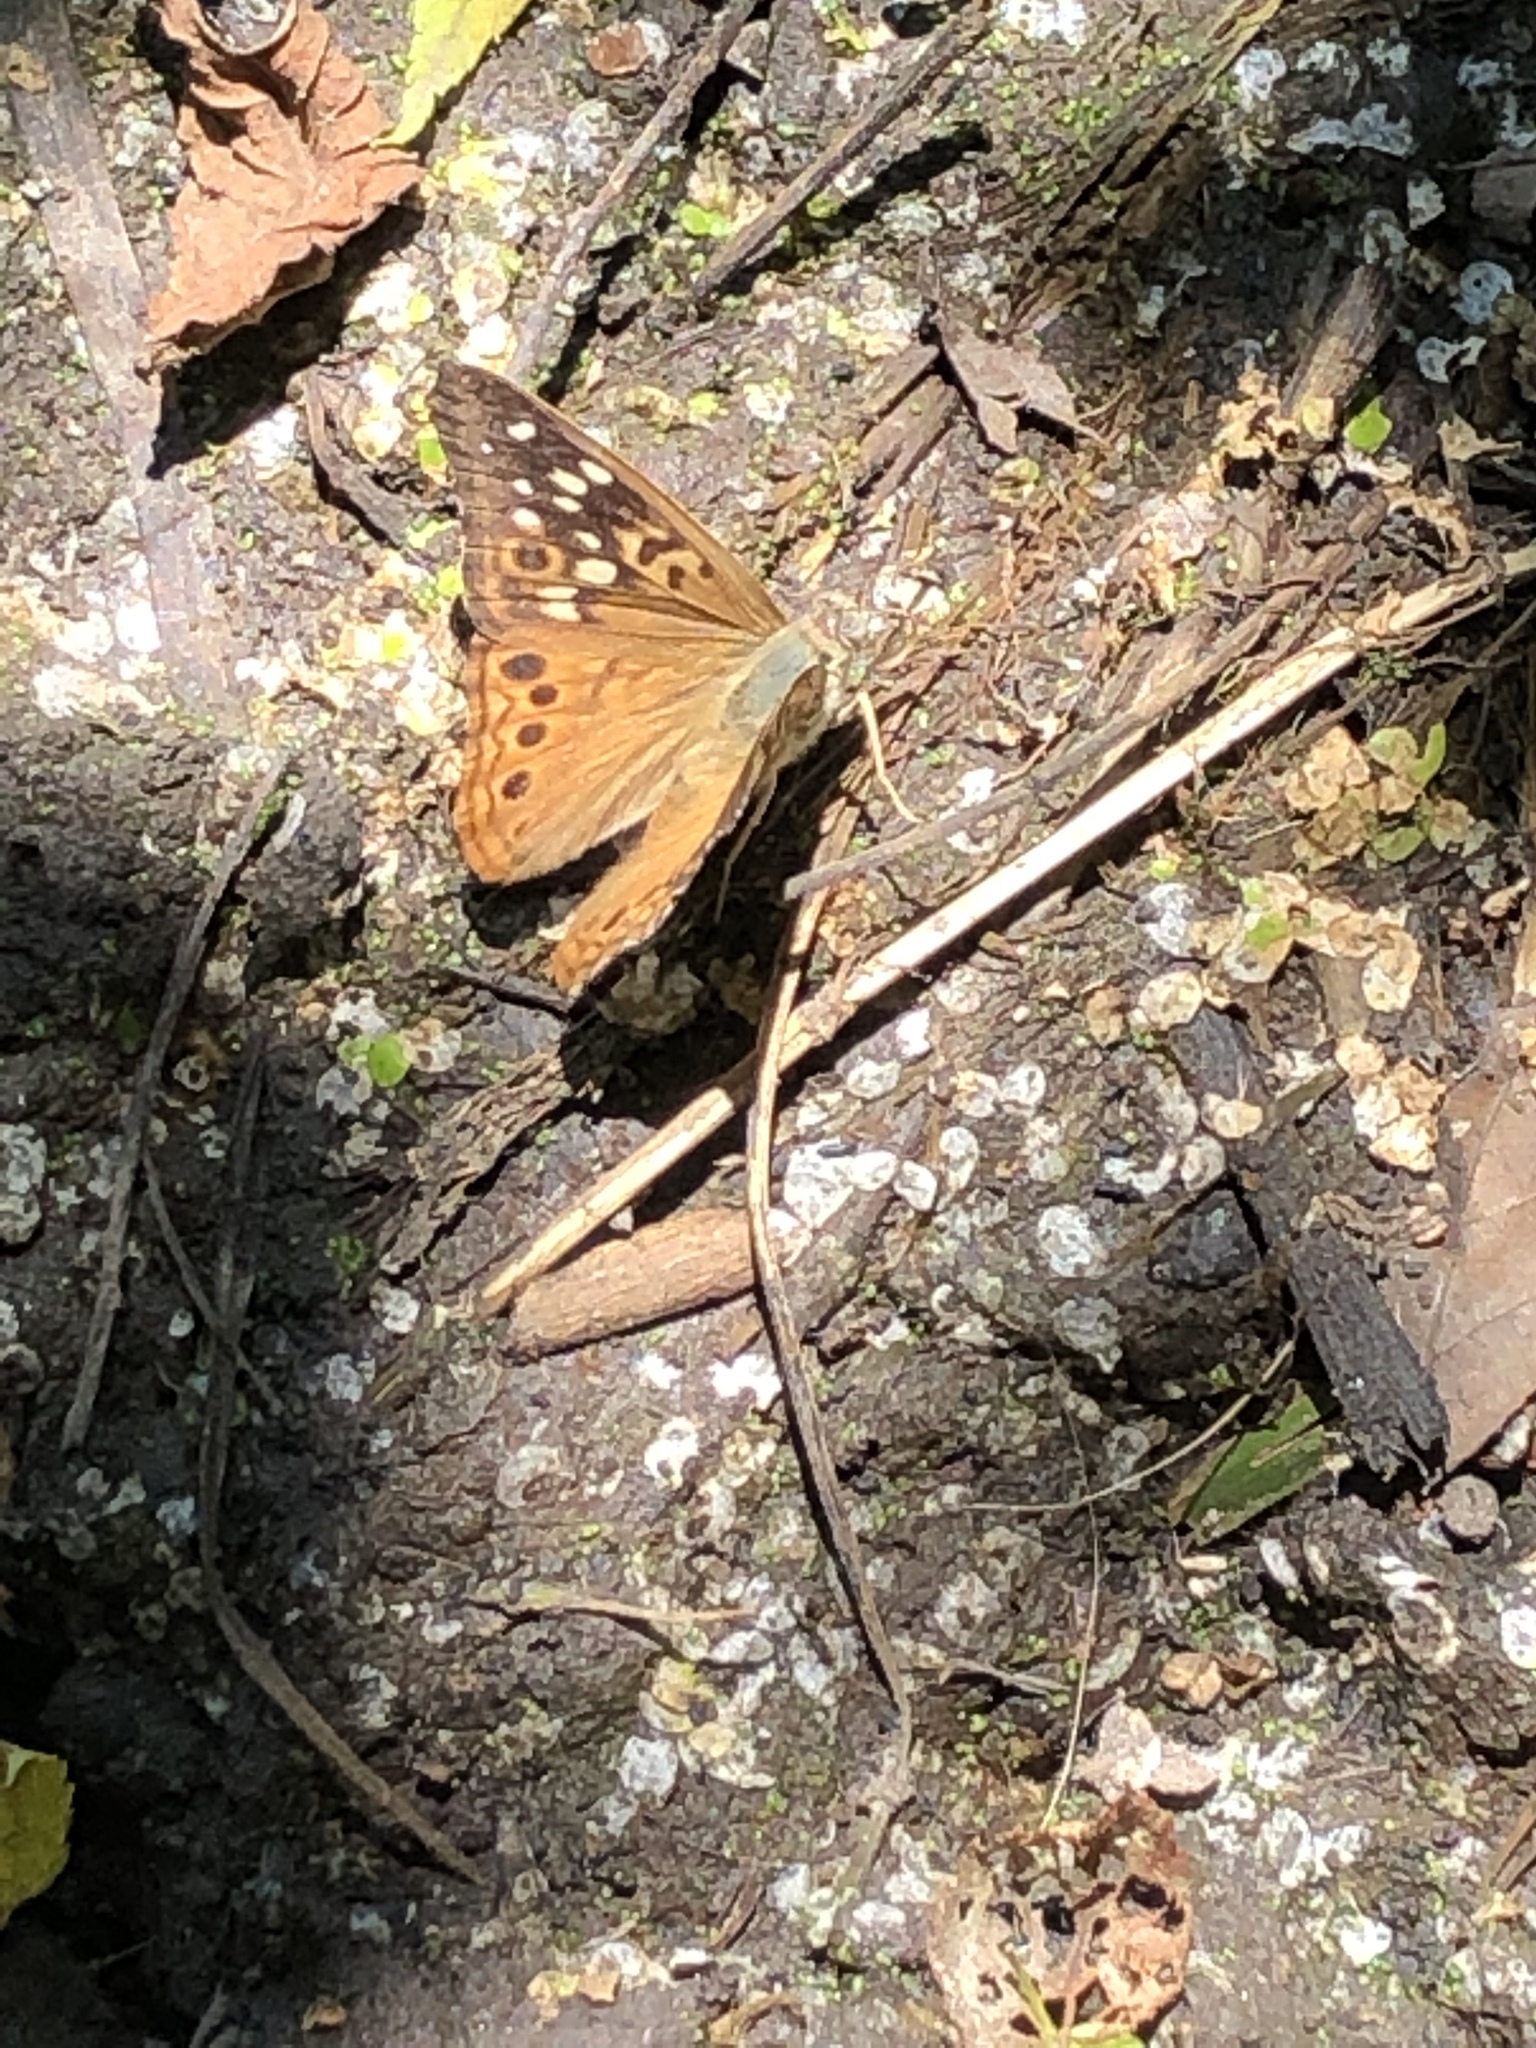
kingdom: Animalia
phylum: Arthropoda
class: Insecta
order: Lepidoptera
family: Nymphalidae
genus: Asterocampa
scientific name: Asterocampa celtis
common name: Hackberry emperor
